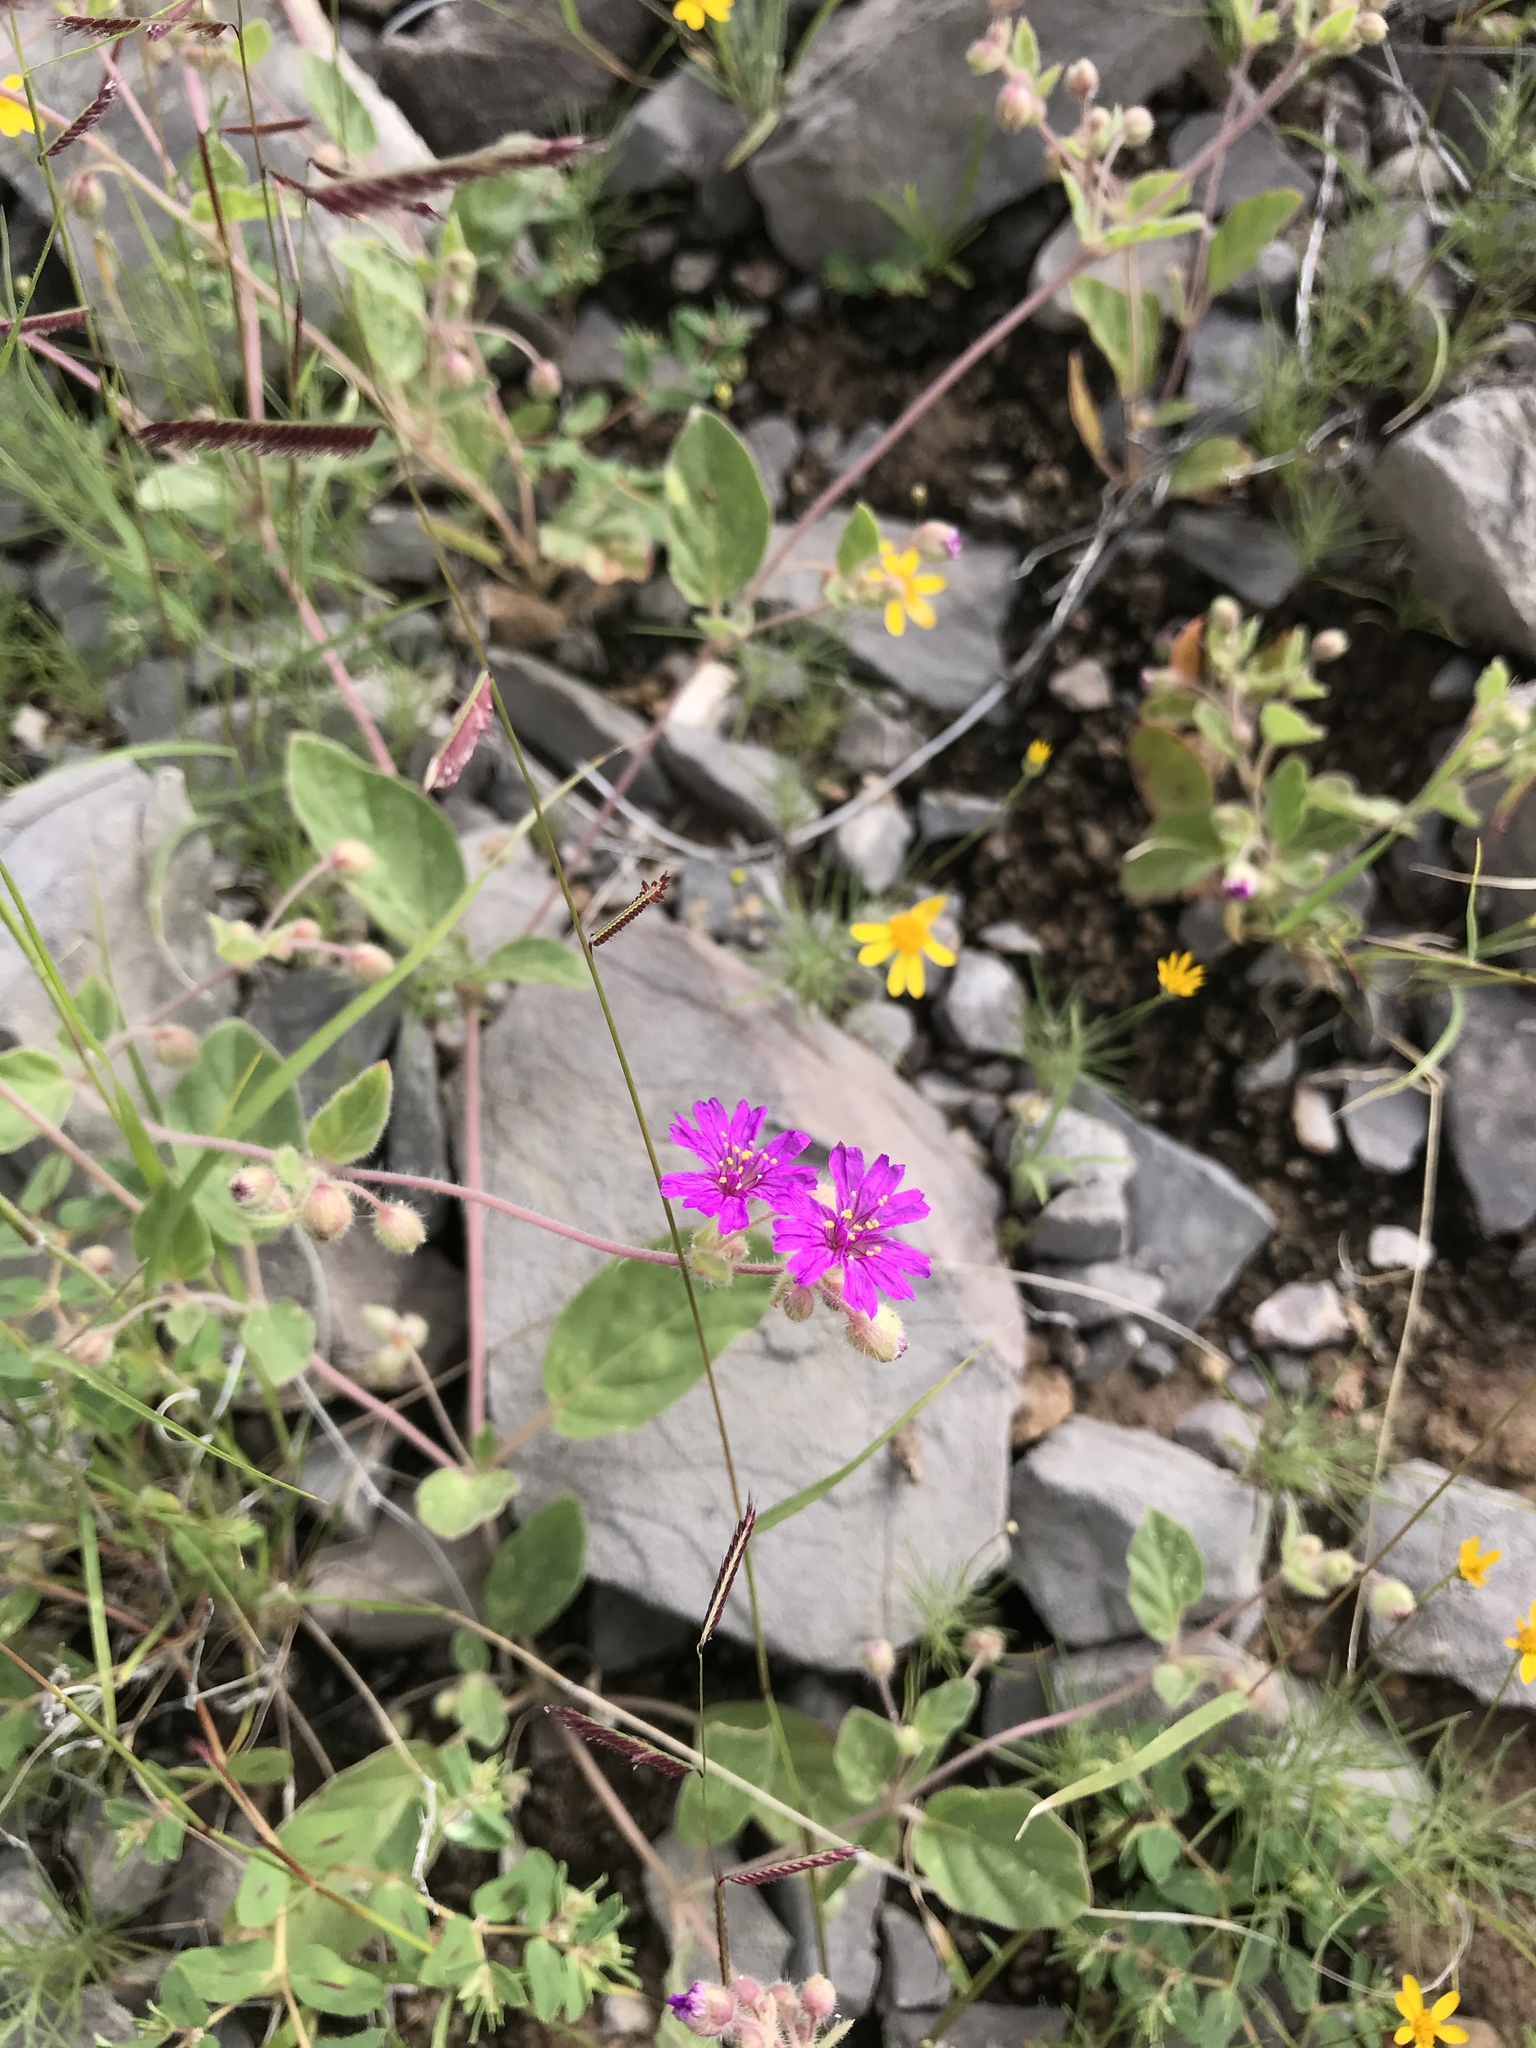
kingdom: Plantae
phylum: Tracheophyta
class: Magnoliopsida
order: Caryophyllales
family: Nyctaginaceae
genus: Allionia
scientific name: Allionia incarnata
